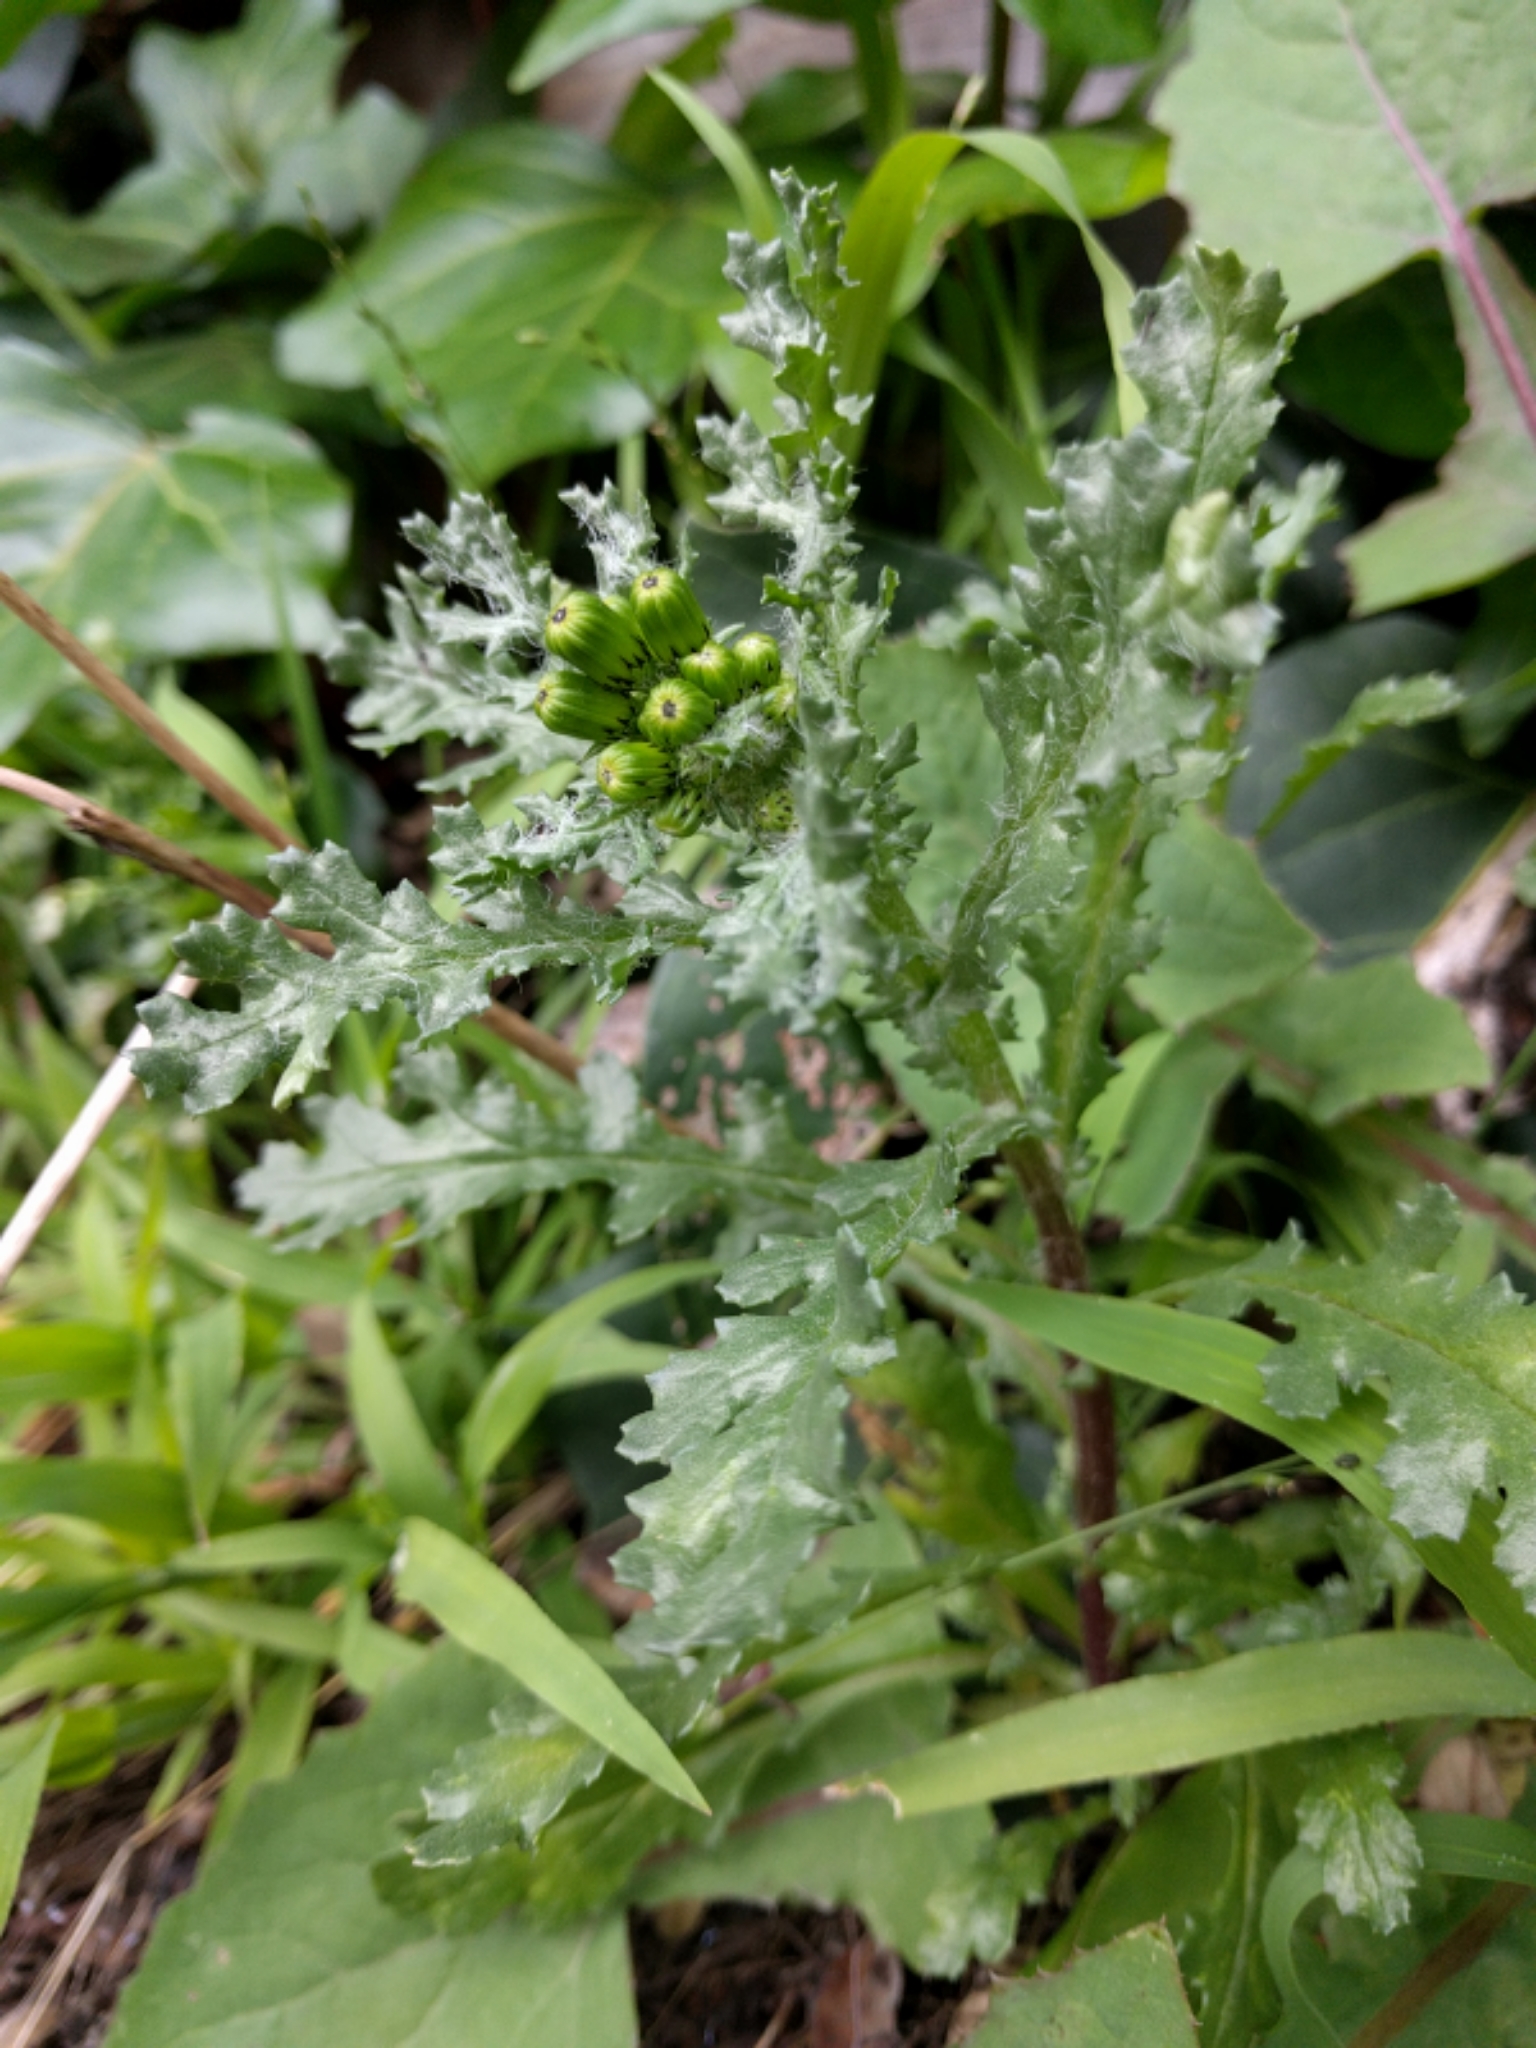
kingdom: Plantae
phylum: Tracheophyta
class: Magnoliopsida
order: Asterales
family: Asteraceae
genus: Senecio
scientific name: Senecio vulgaris
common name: Old-man-in-the-spring
